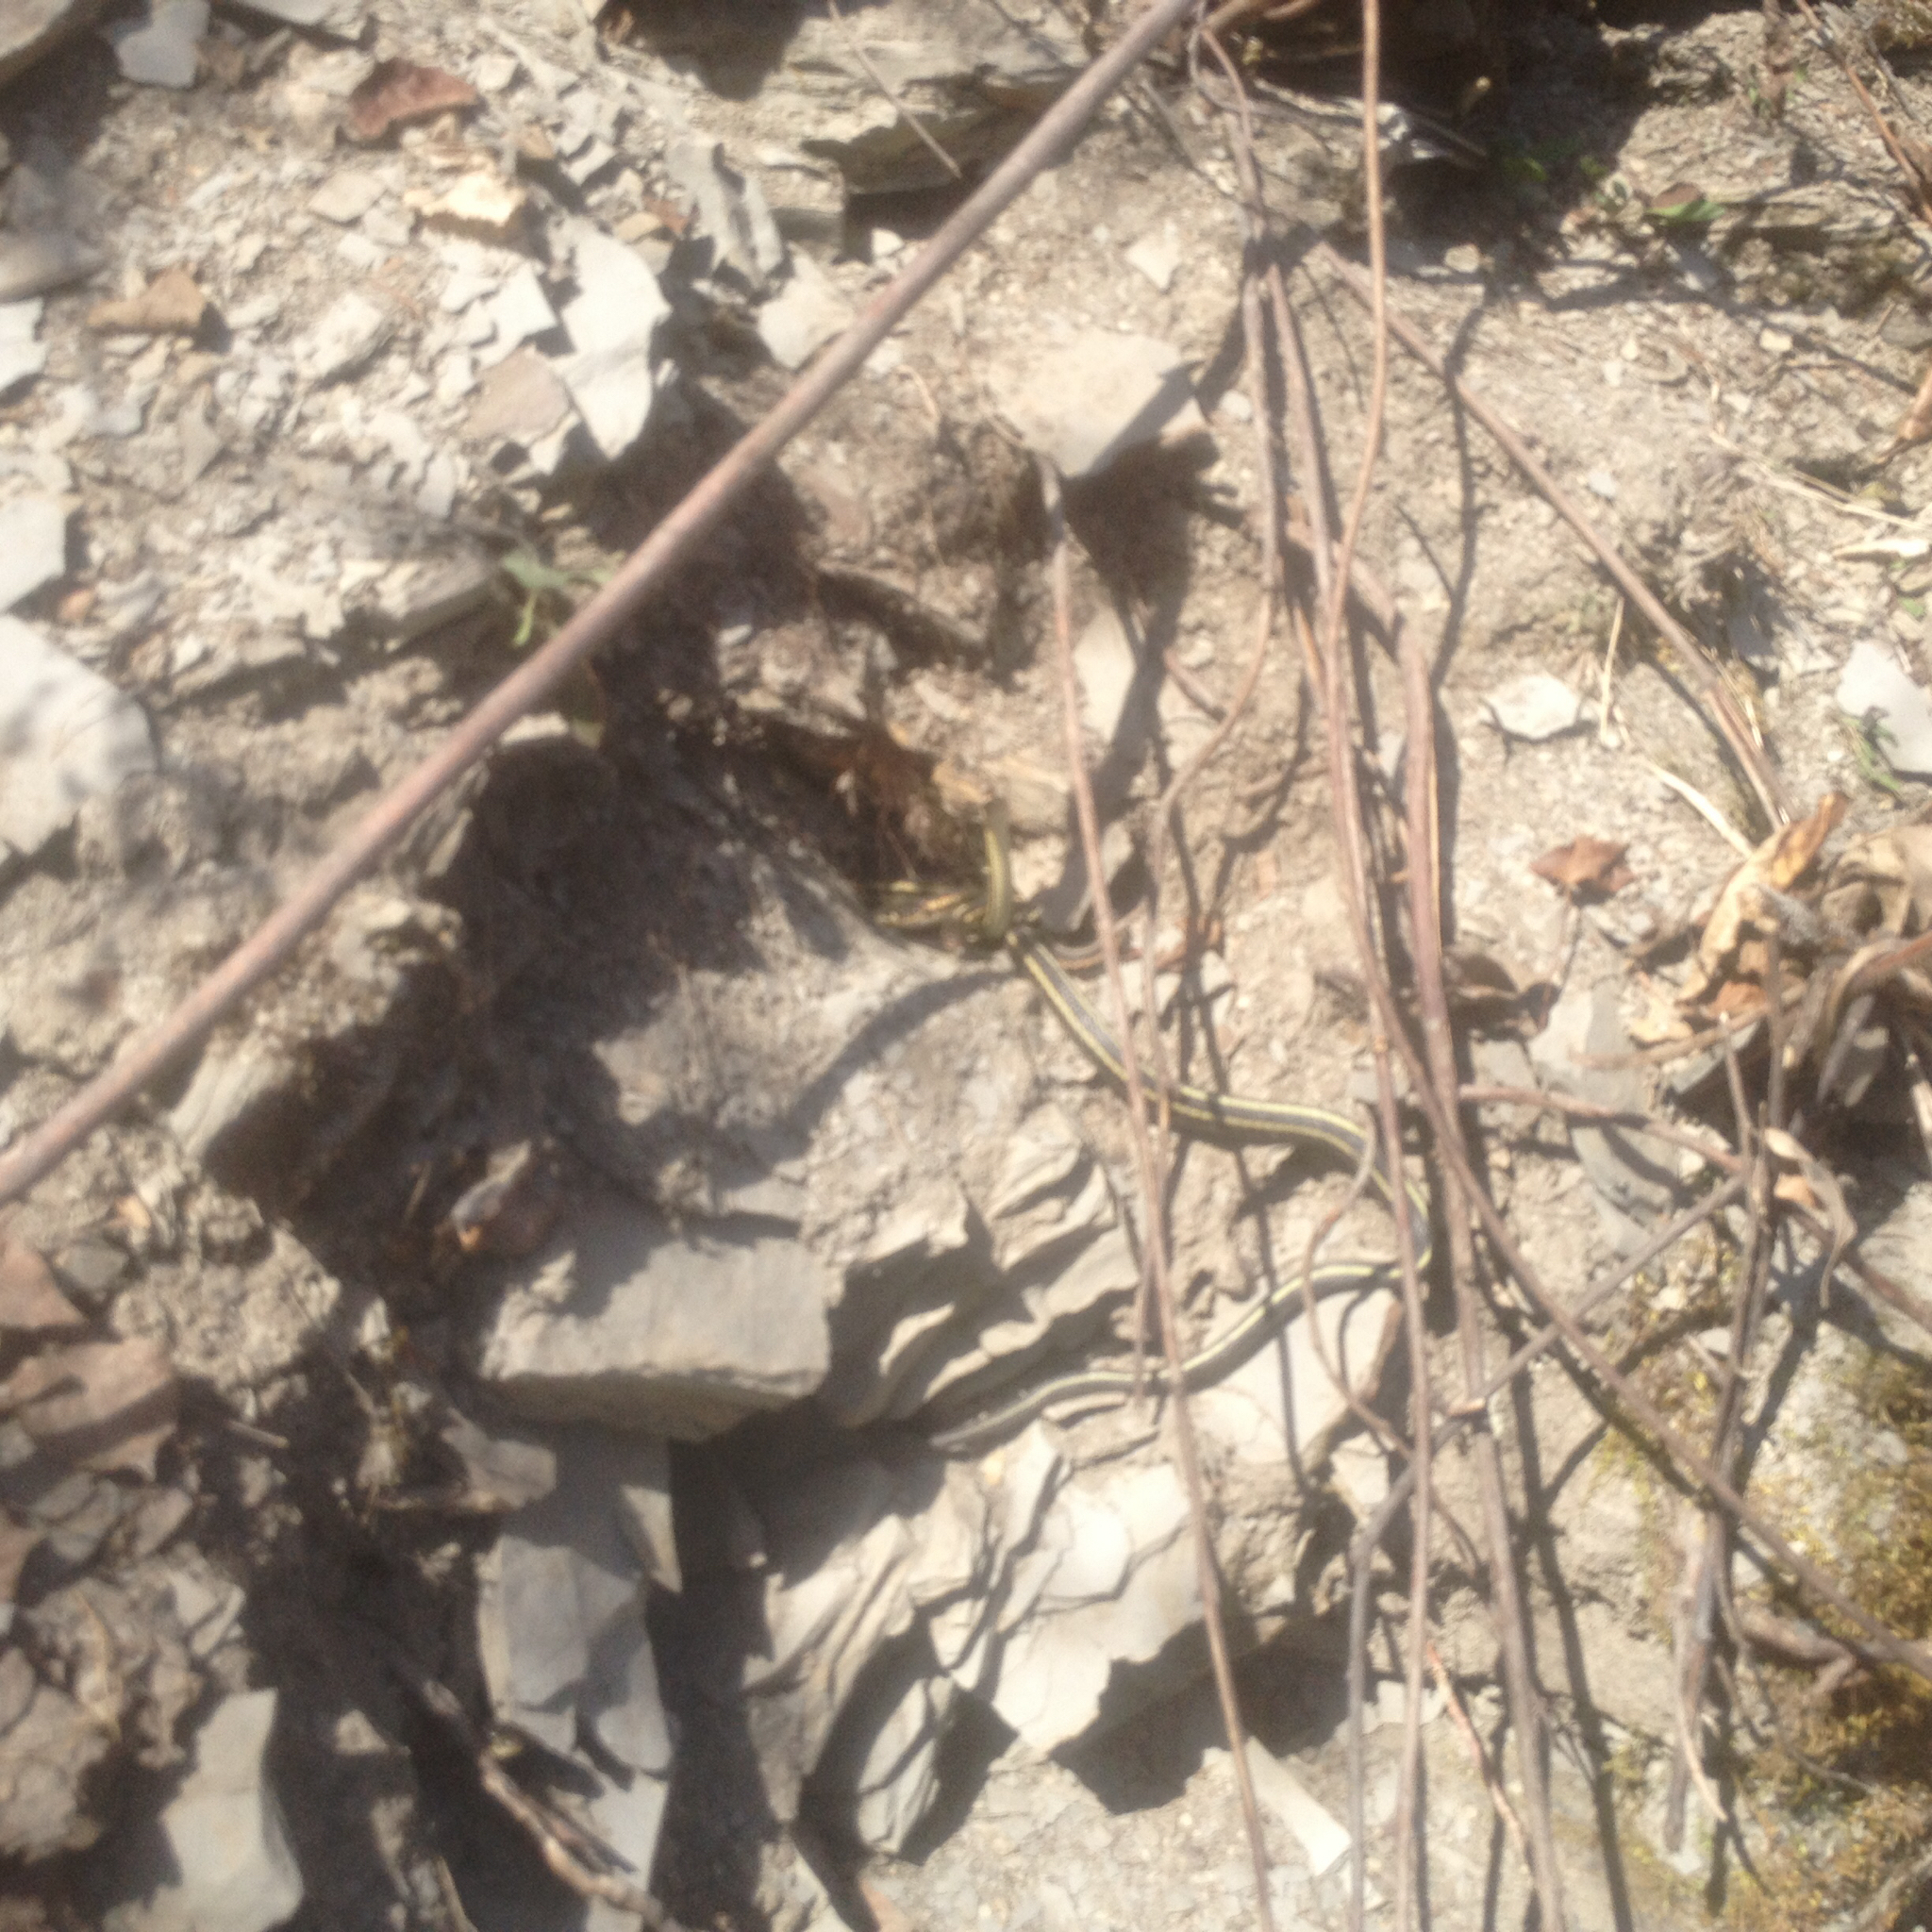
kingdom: Animalia
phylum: Chordata
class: Squamata
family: Colubridae
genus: Thamnophis
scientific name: Thamnophis sirtalis
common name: Common garter snake
